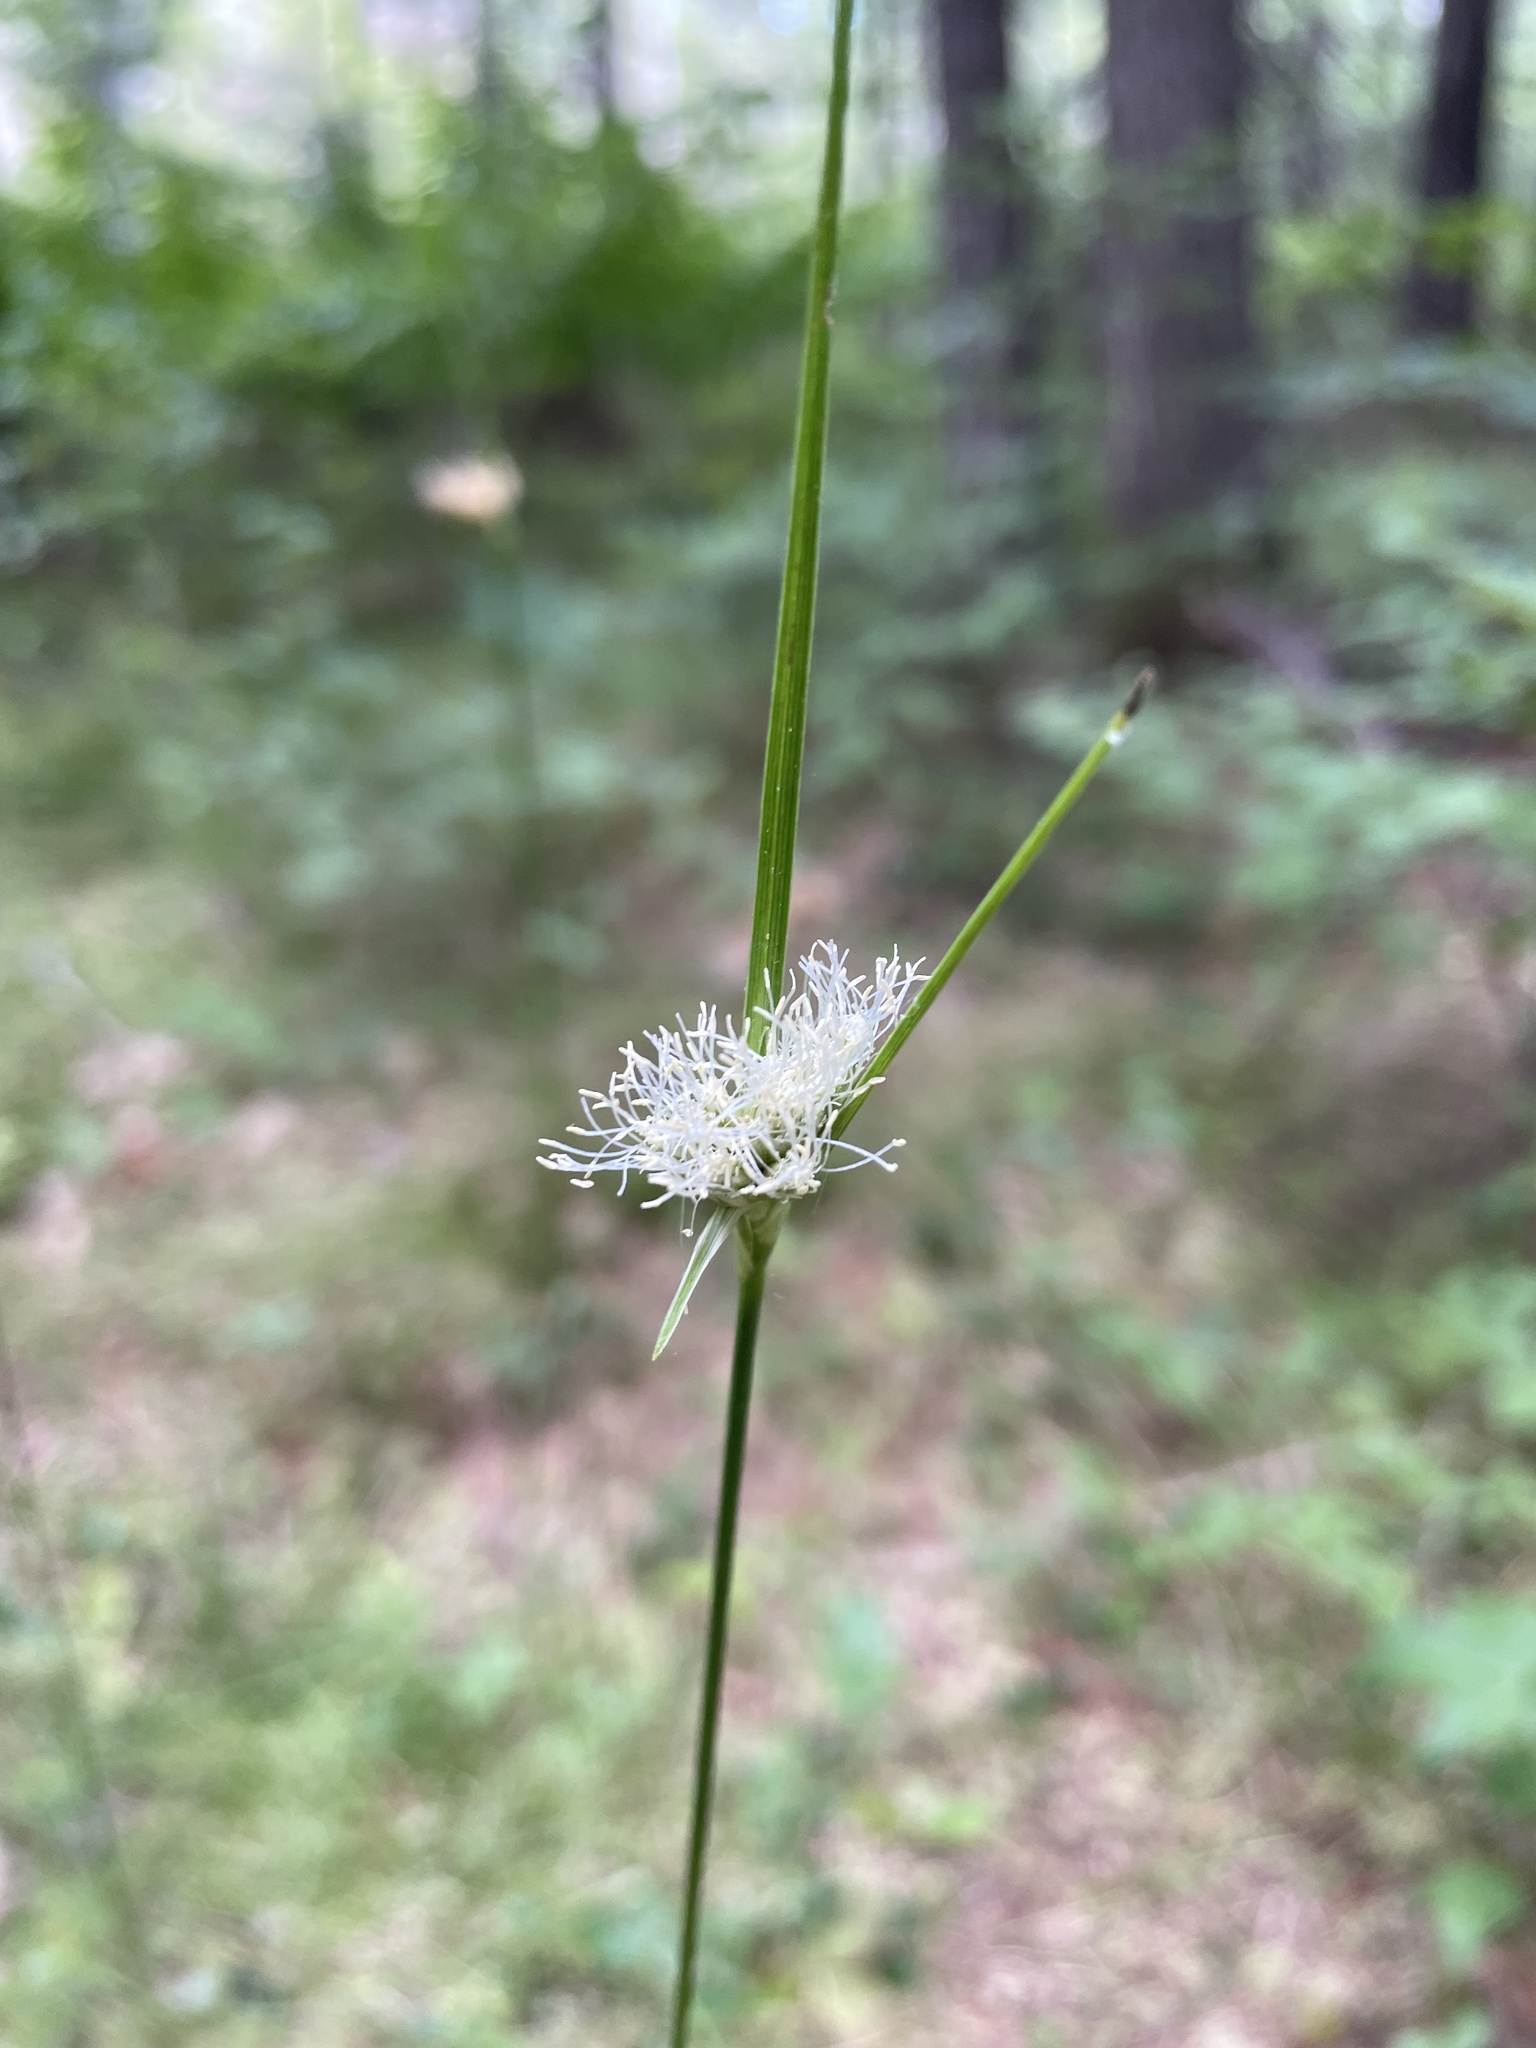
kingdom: Plantae
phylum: Tracheophyta
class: Liliopsida
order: Poales
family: Cyperaceae
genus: Eriophorum
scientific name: Eriophorum virginicum
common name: Tawny cottongrass
